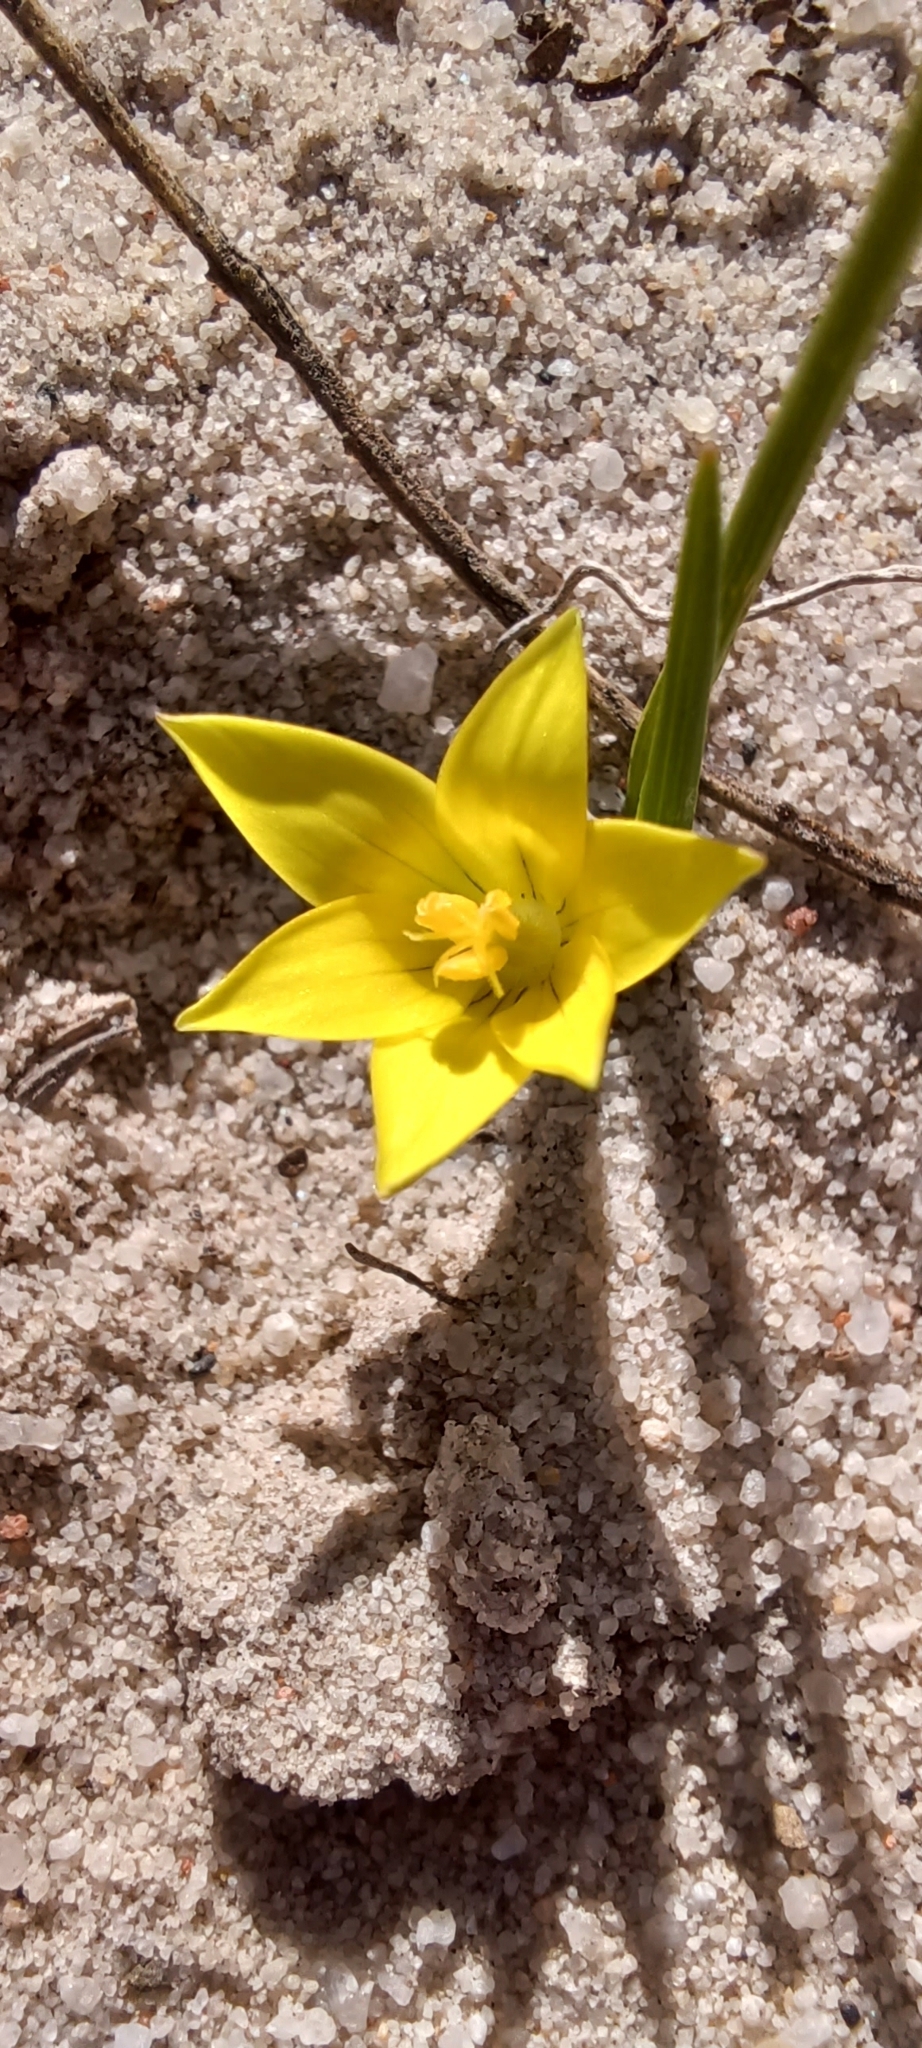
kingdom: Plantae
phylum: Tracheophyta
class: Liliopsida
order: Asparagales
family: Iridaceae
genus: Romulea
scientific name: Romulea flava
